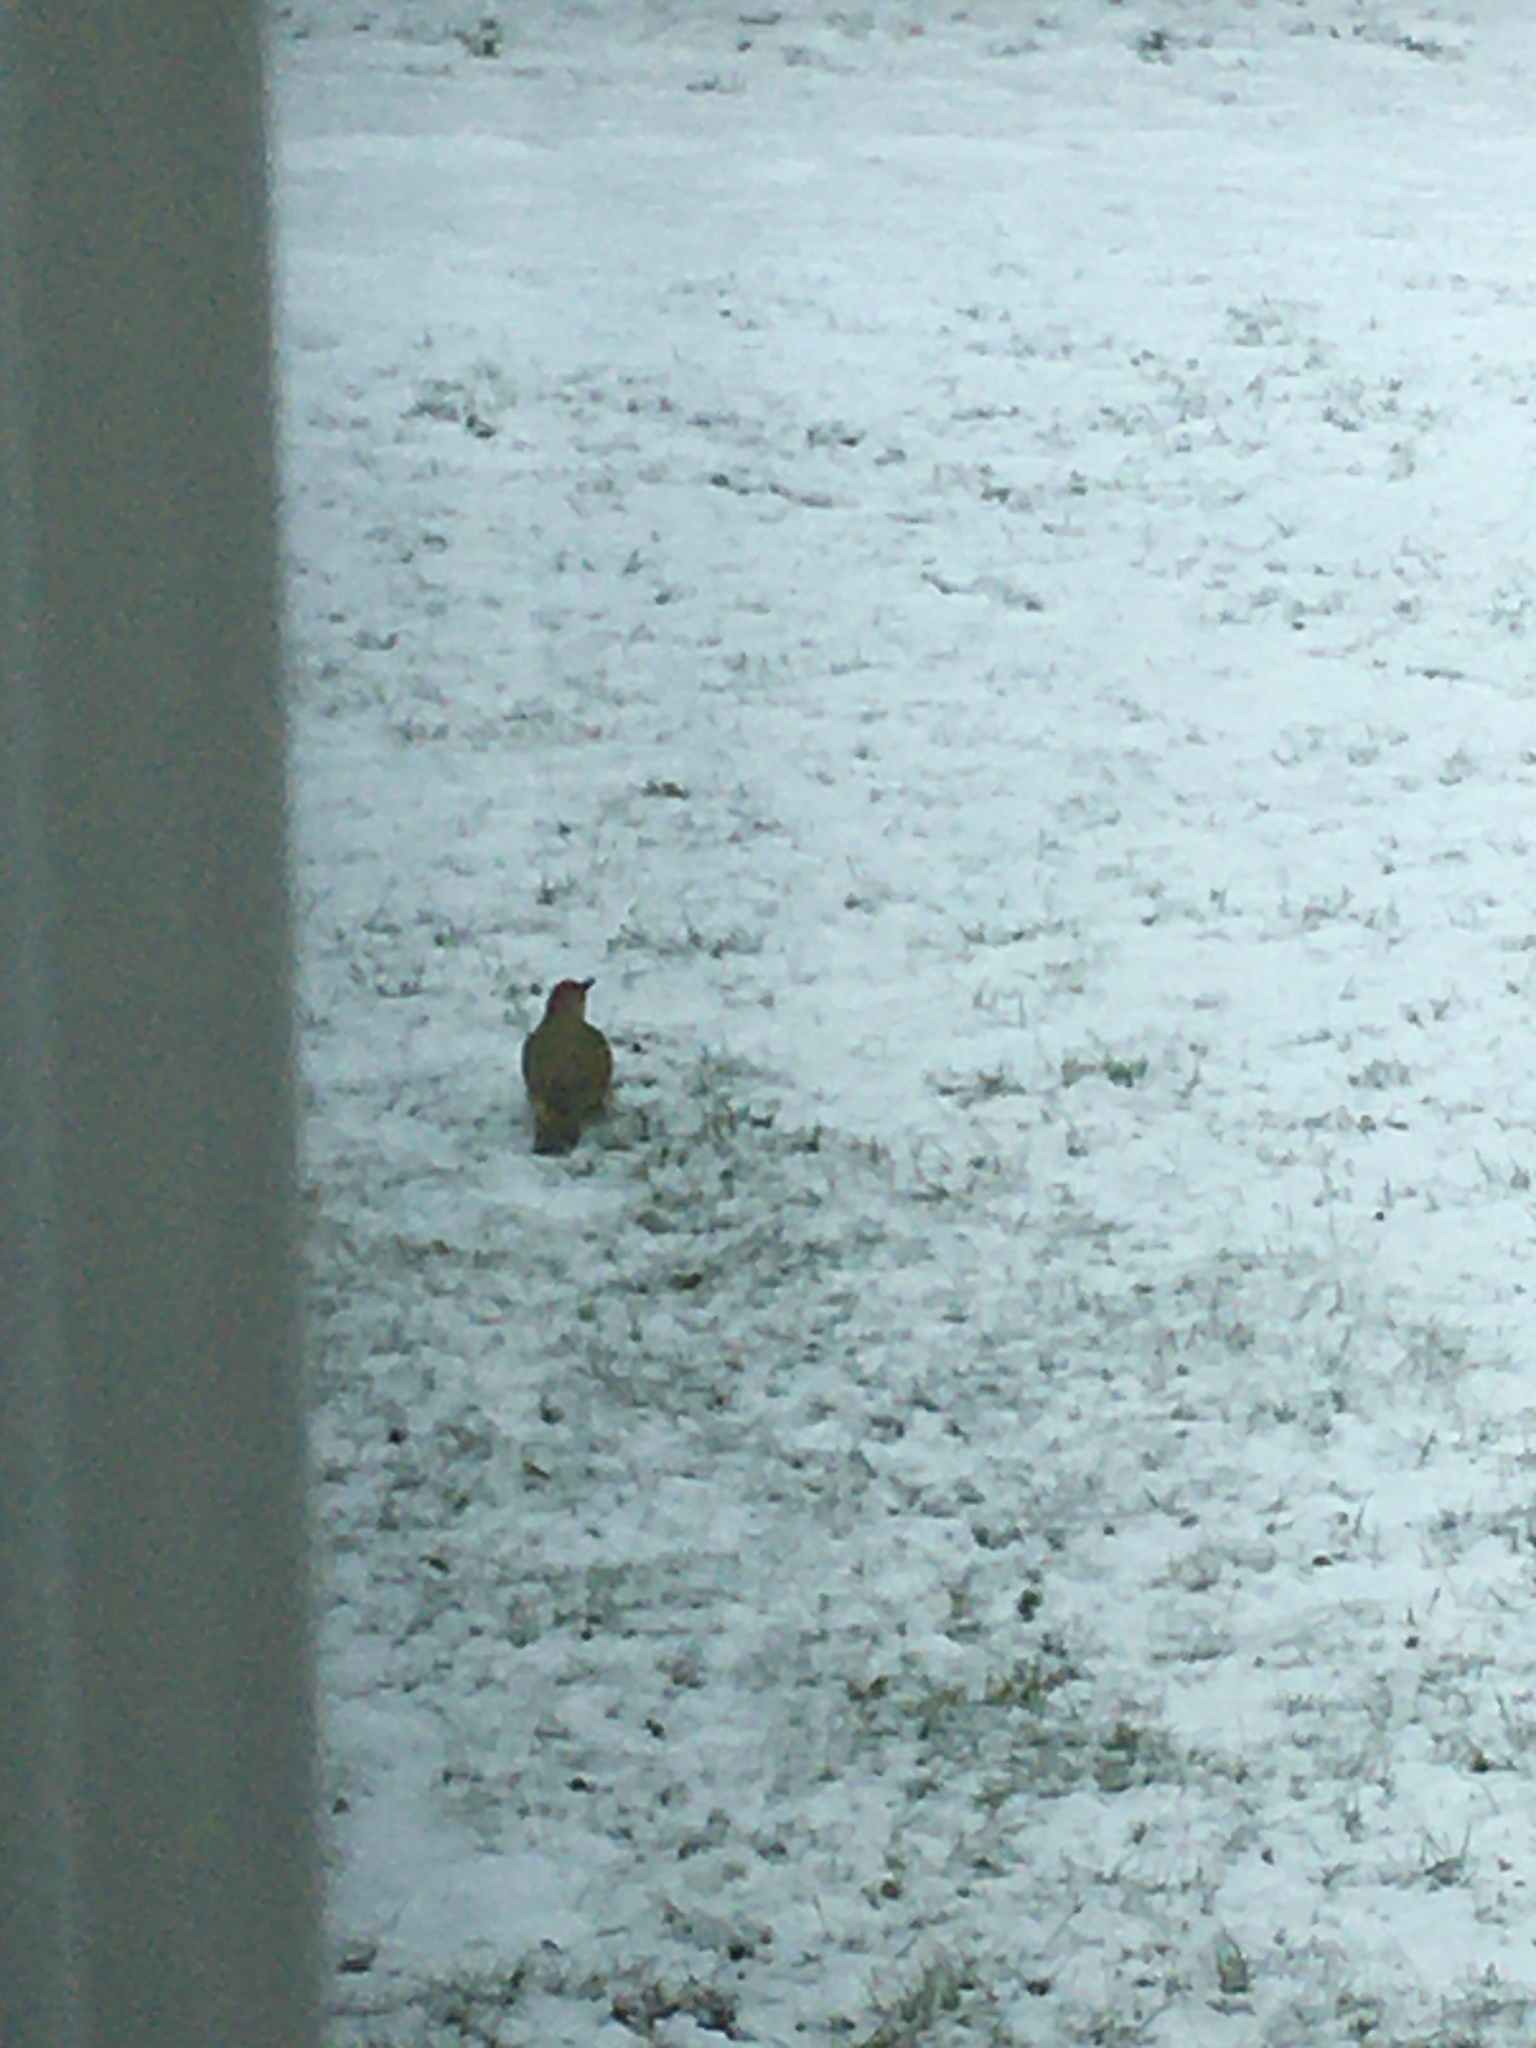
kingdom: Animalia
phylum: Chordata
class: Aves
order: Piciformes
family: Picidae
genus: Picus
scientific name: Picus viridis
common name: European green woodpecker
